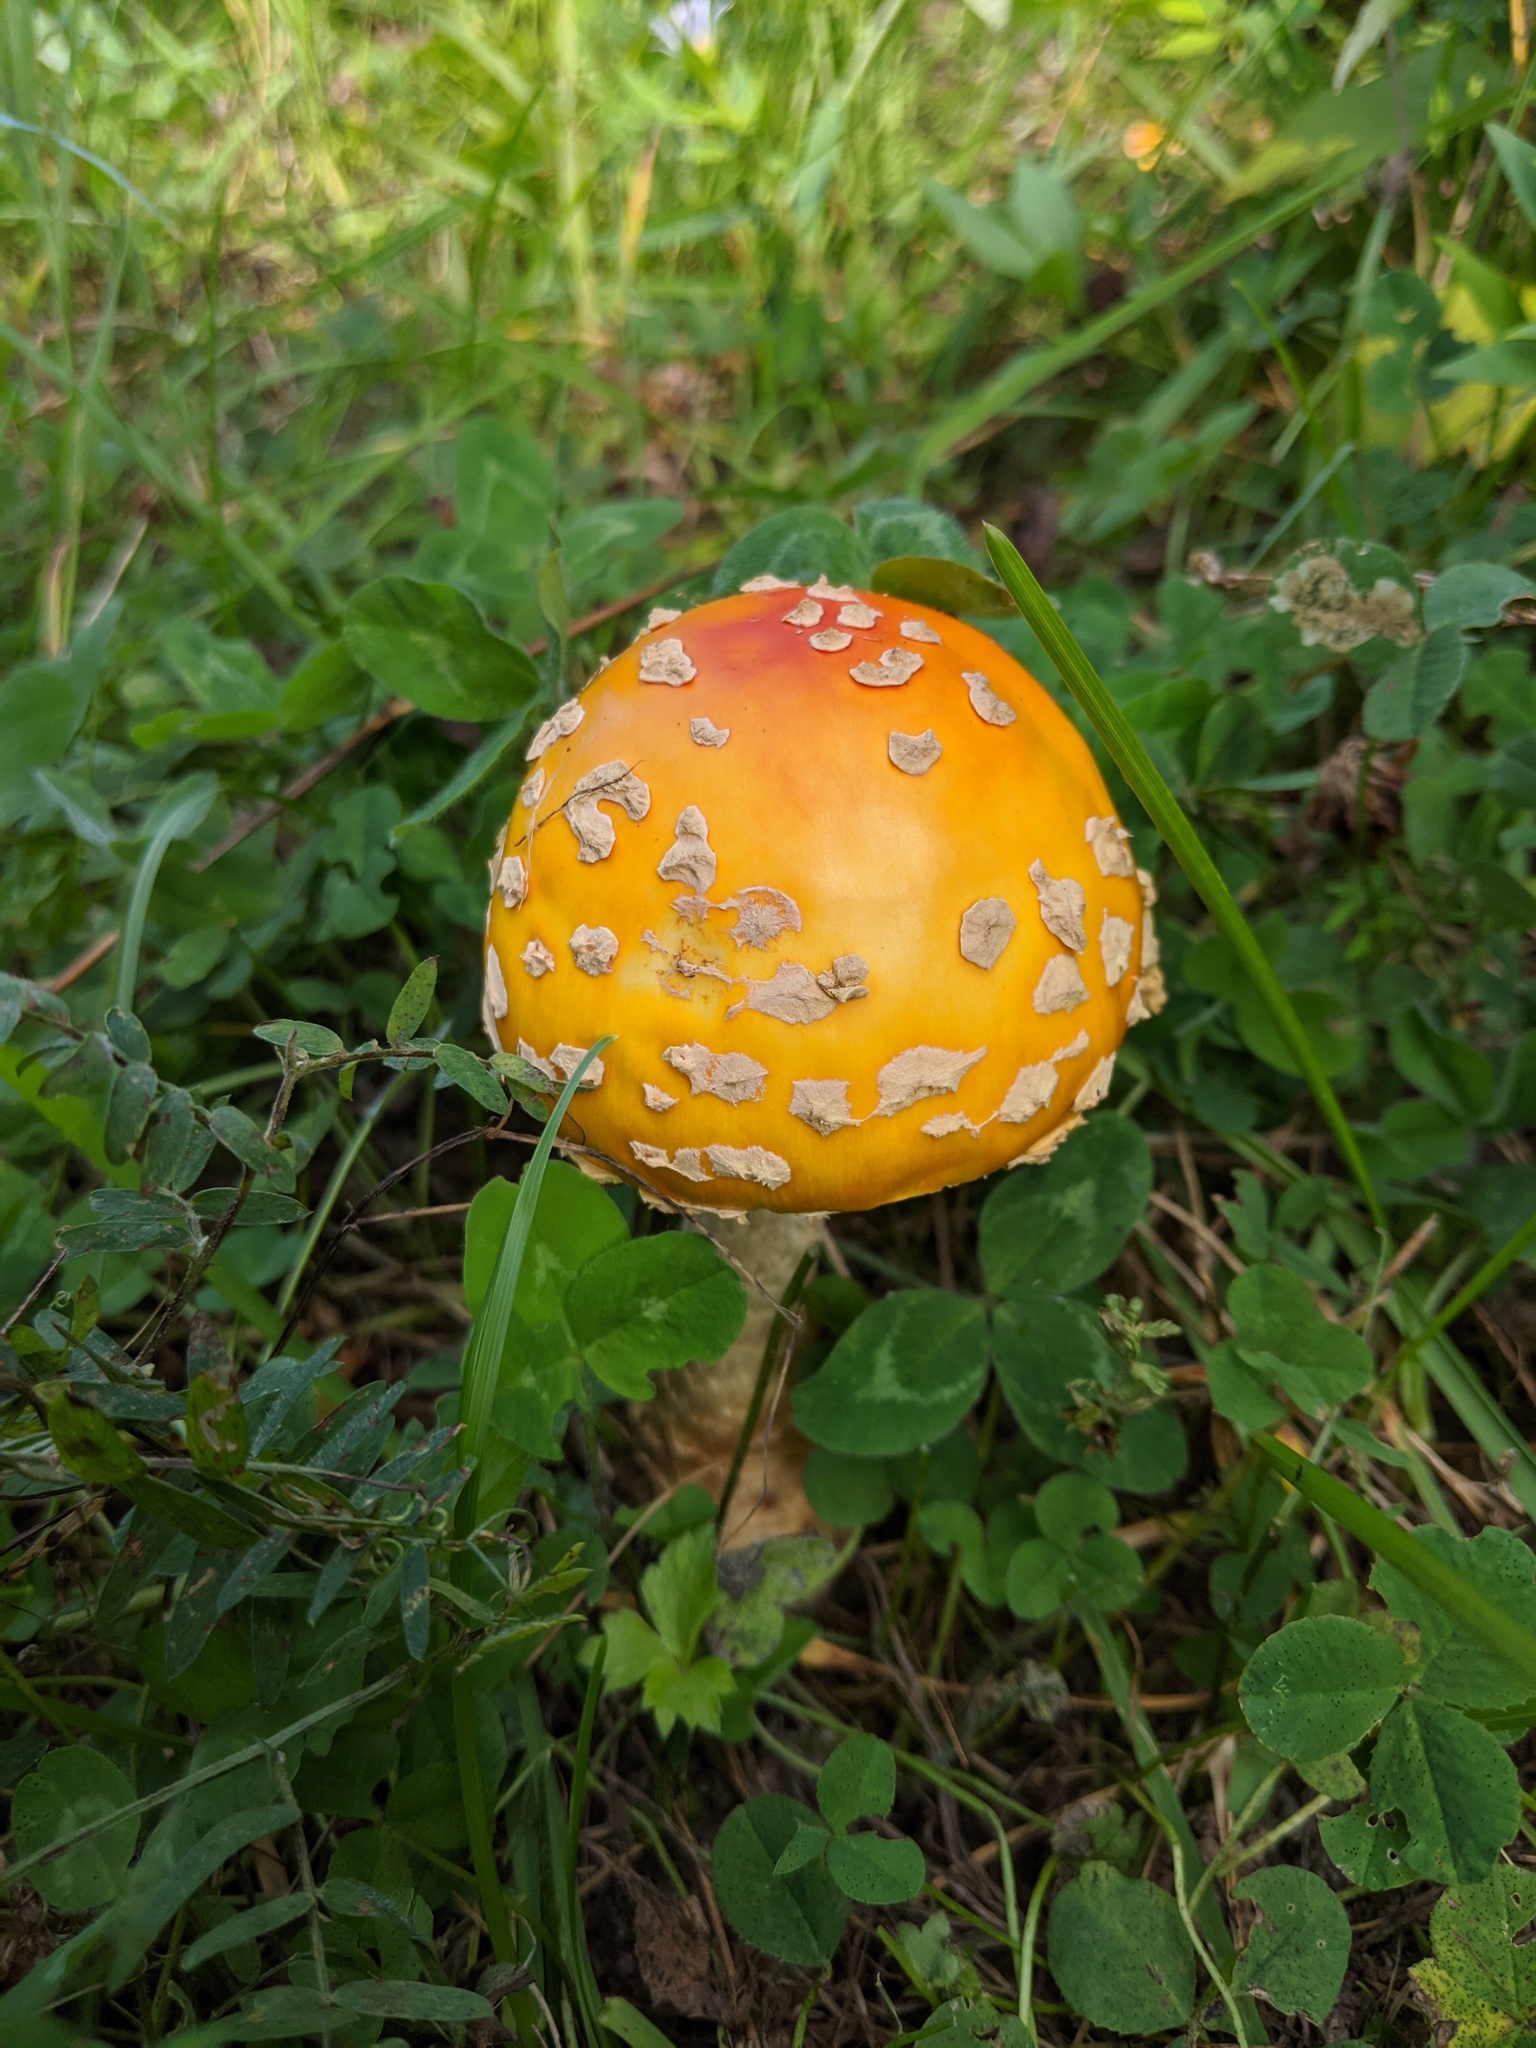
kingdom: Fungi
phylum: Basidiomycota
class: Agaricomycetes
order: Agaricales
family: Amanitaceae
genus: Amanita
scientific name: Amanita muscaria
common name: Fly agaric
